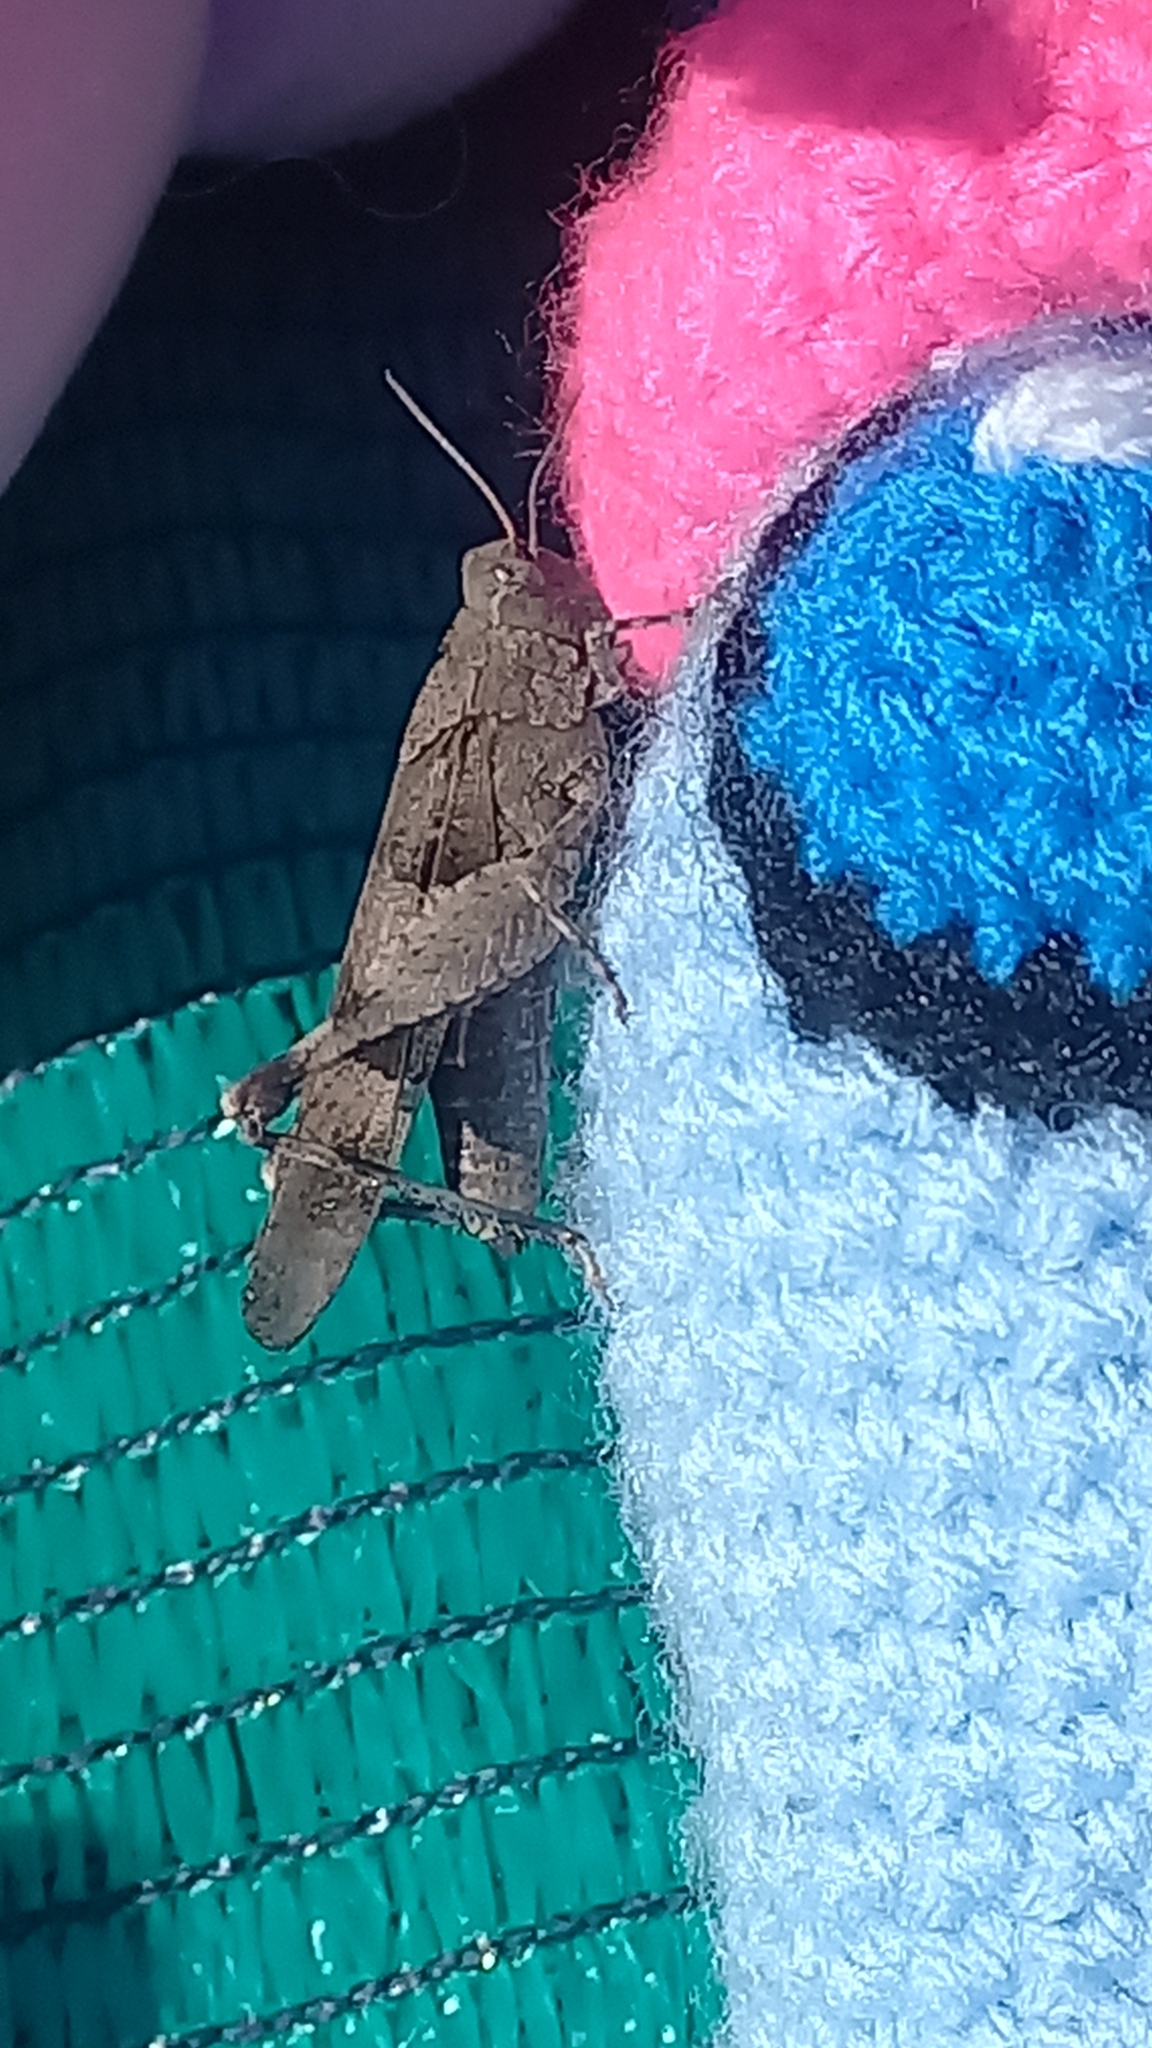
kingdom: Animalia
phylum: Arthropoda
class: Insecta
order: Orthoptera
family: Acrididae
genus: Oedipoda
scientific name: Oedipoda caerulescens
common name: Blue-winged grasshopper
